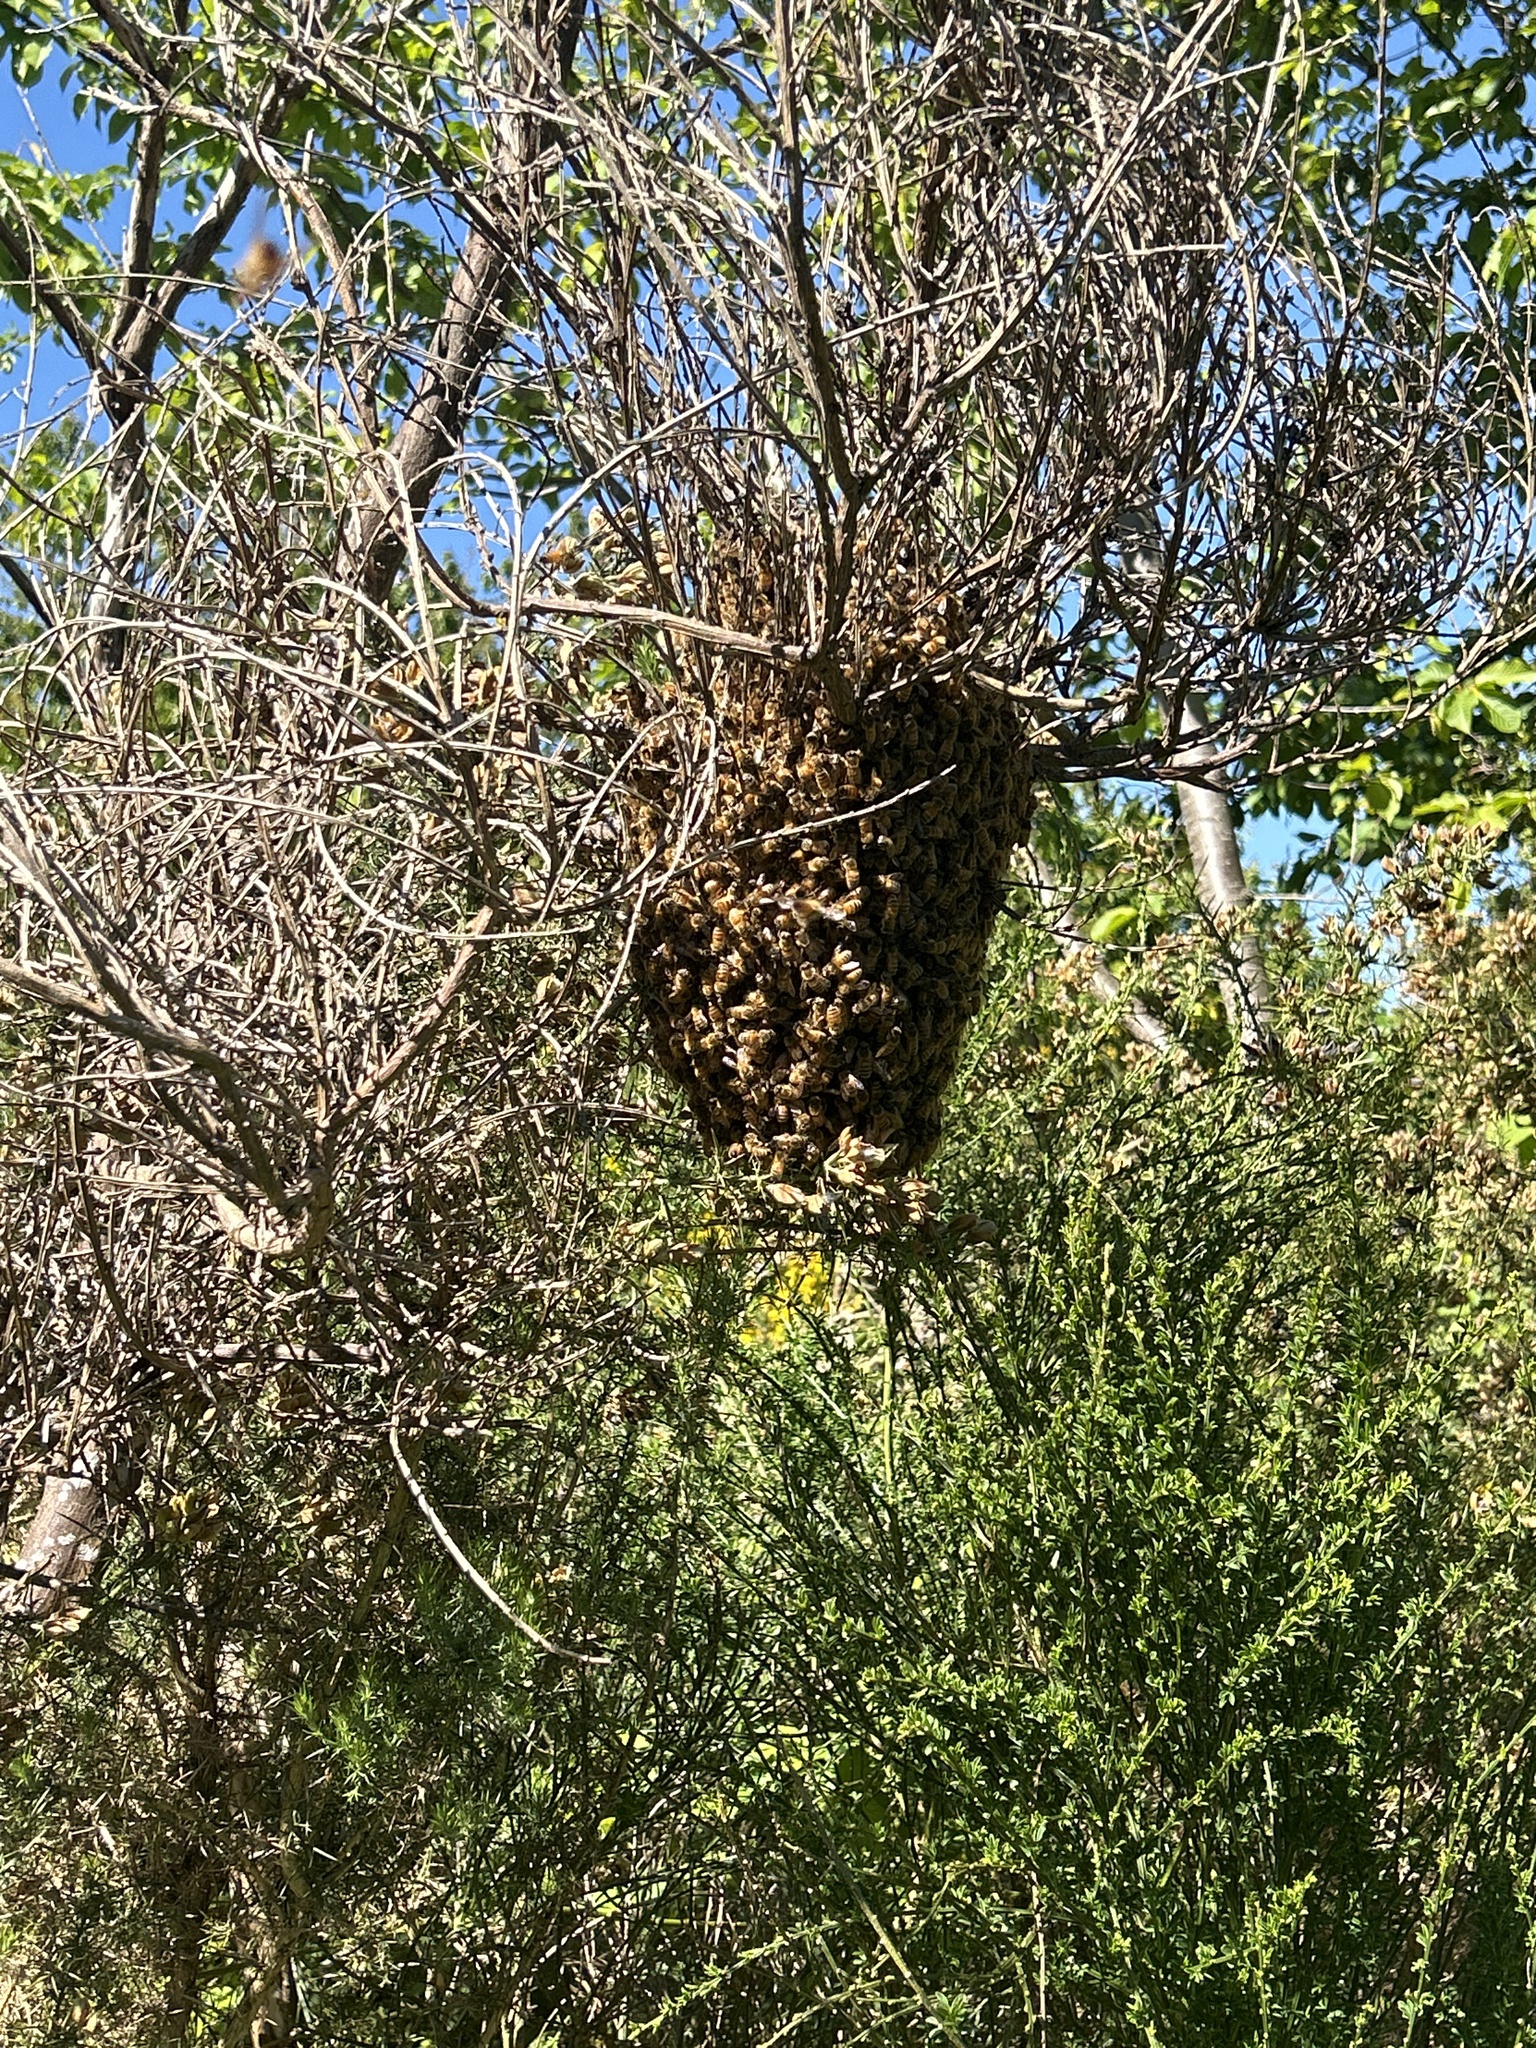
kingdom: Animalia
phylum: Arthropoda
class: Insecta
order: Hymenoptera
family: Apidae
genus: Apis
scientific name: Apis mellifera
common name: Honey bee
